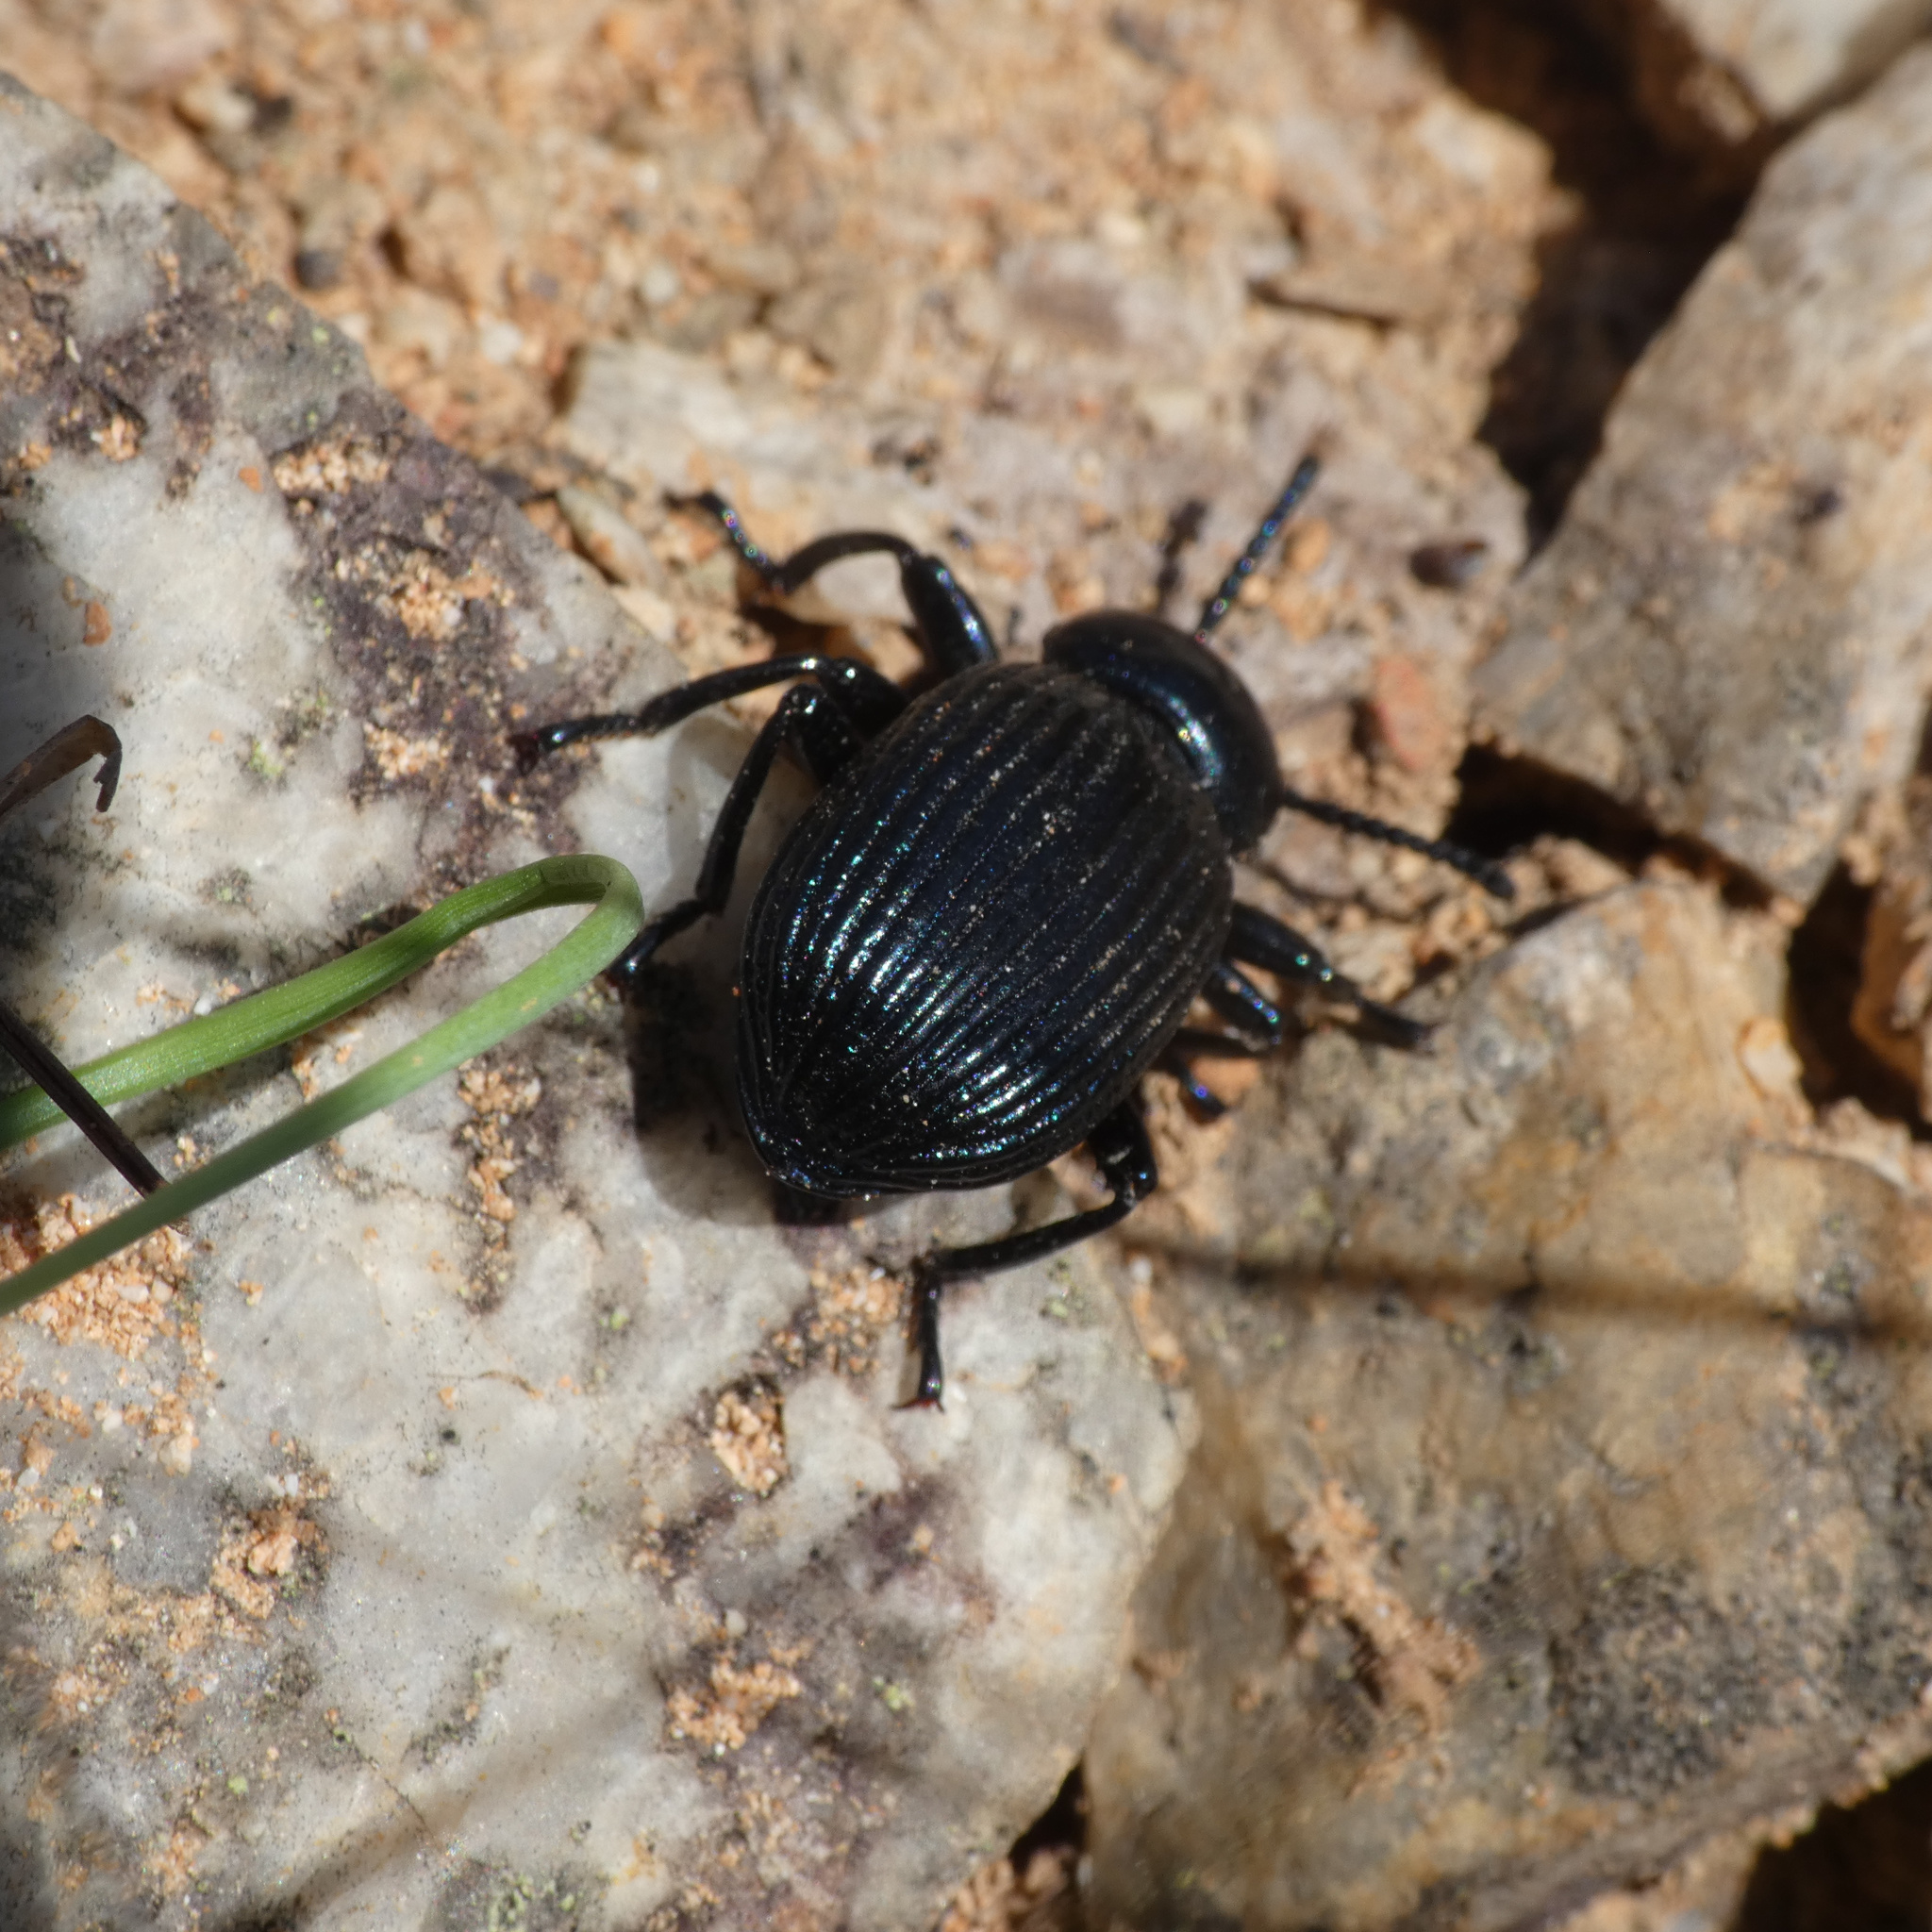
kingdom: Animalia
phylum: Arthropoda
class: Insecta
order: Coleoptera
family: Tenebrionidae
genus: Catamerus
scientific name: Catamerus
